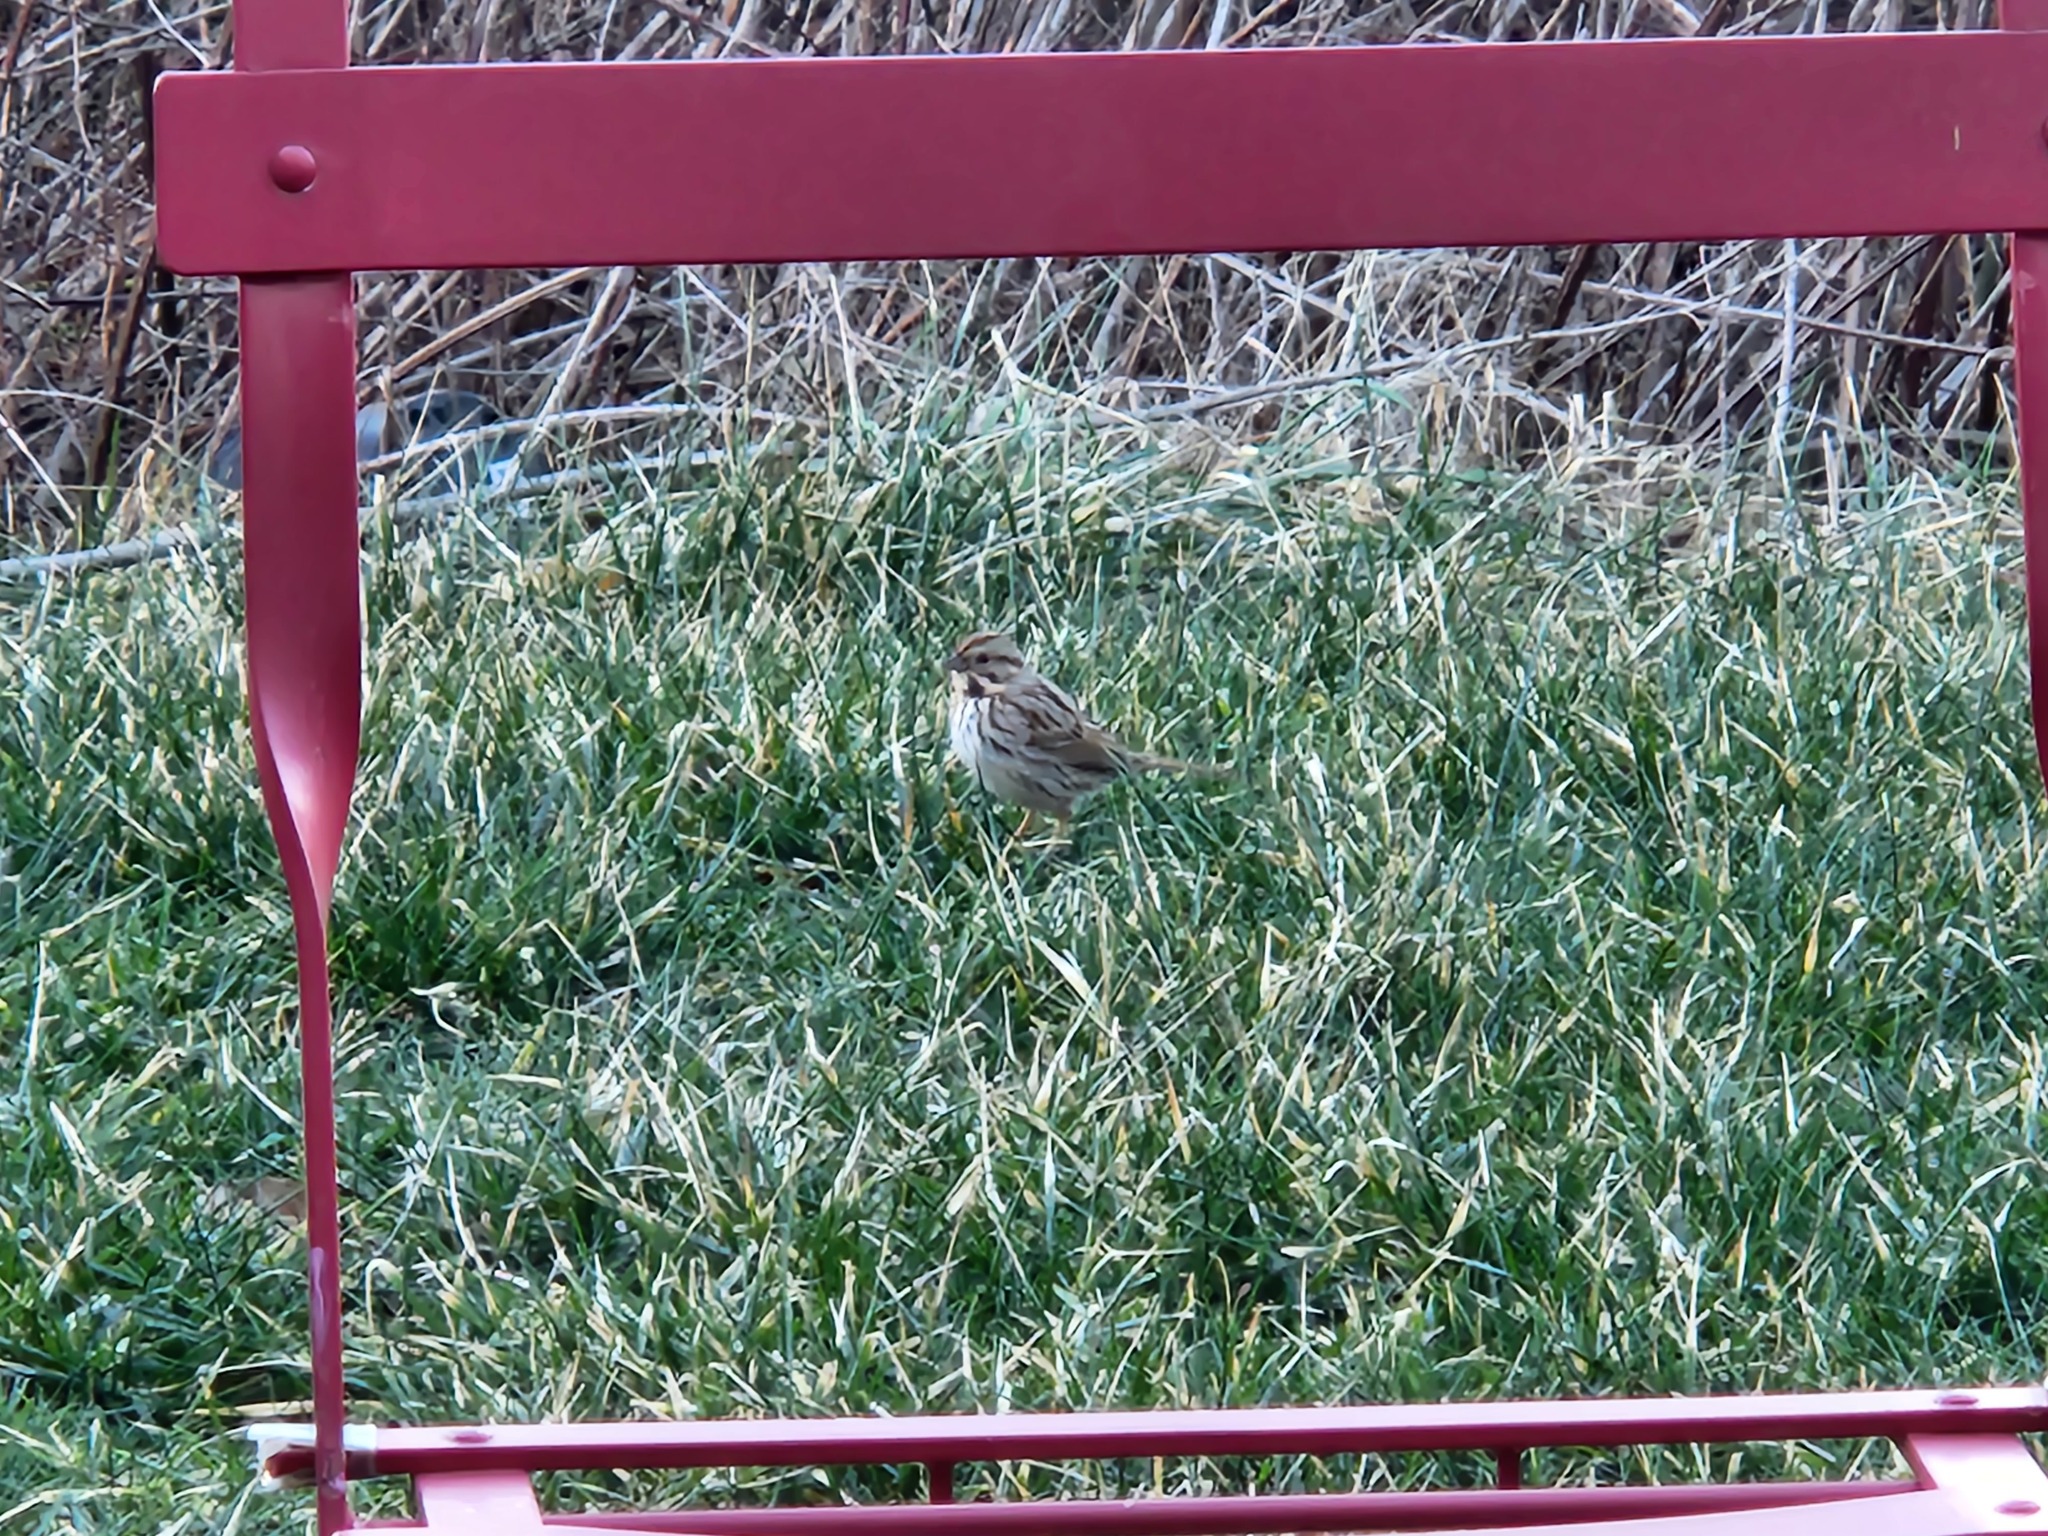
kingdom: Animalia
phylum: Chordata
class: Aves
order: Passeriformes
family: Passerellidae
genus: Melospiza
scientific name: Melospiza melodia
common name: Song sparrow
